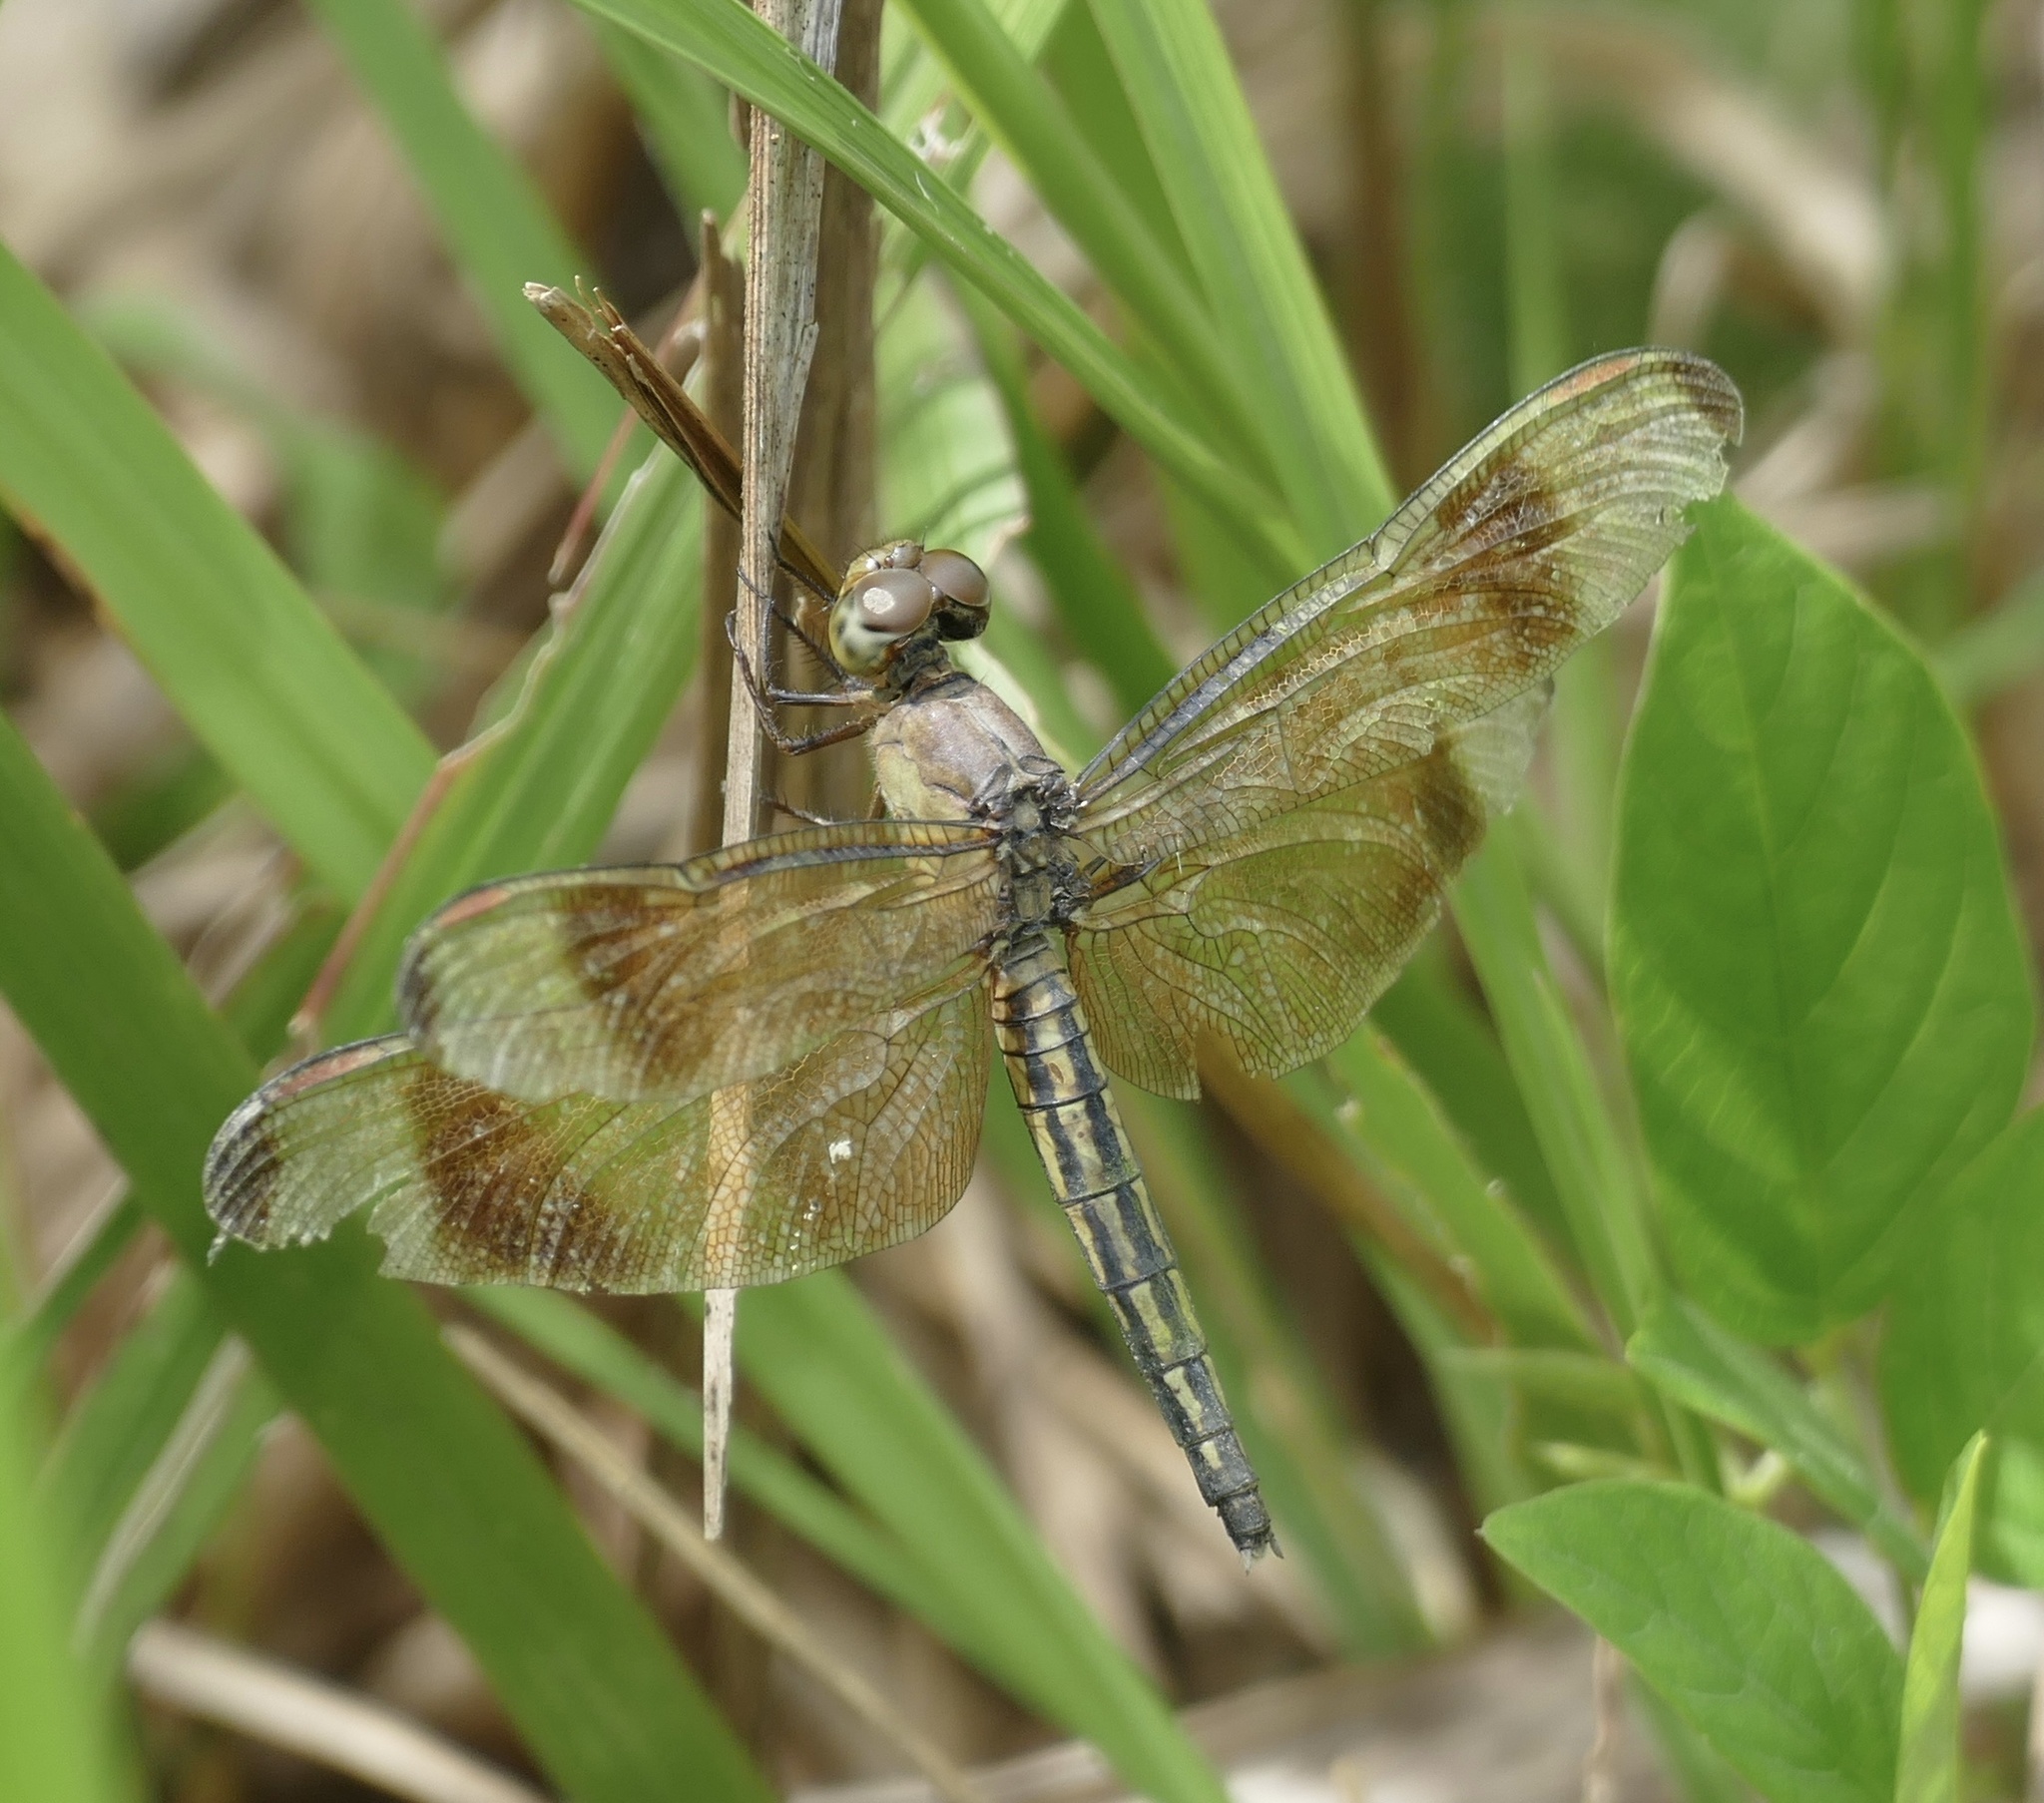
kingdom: Animalia
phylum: Arthropoda
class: Insecta
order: Odonata
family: Libellulidae
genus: Neurothemis
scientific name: Neurothemis manadensis
